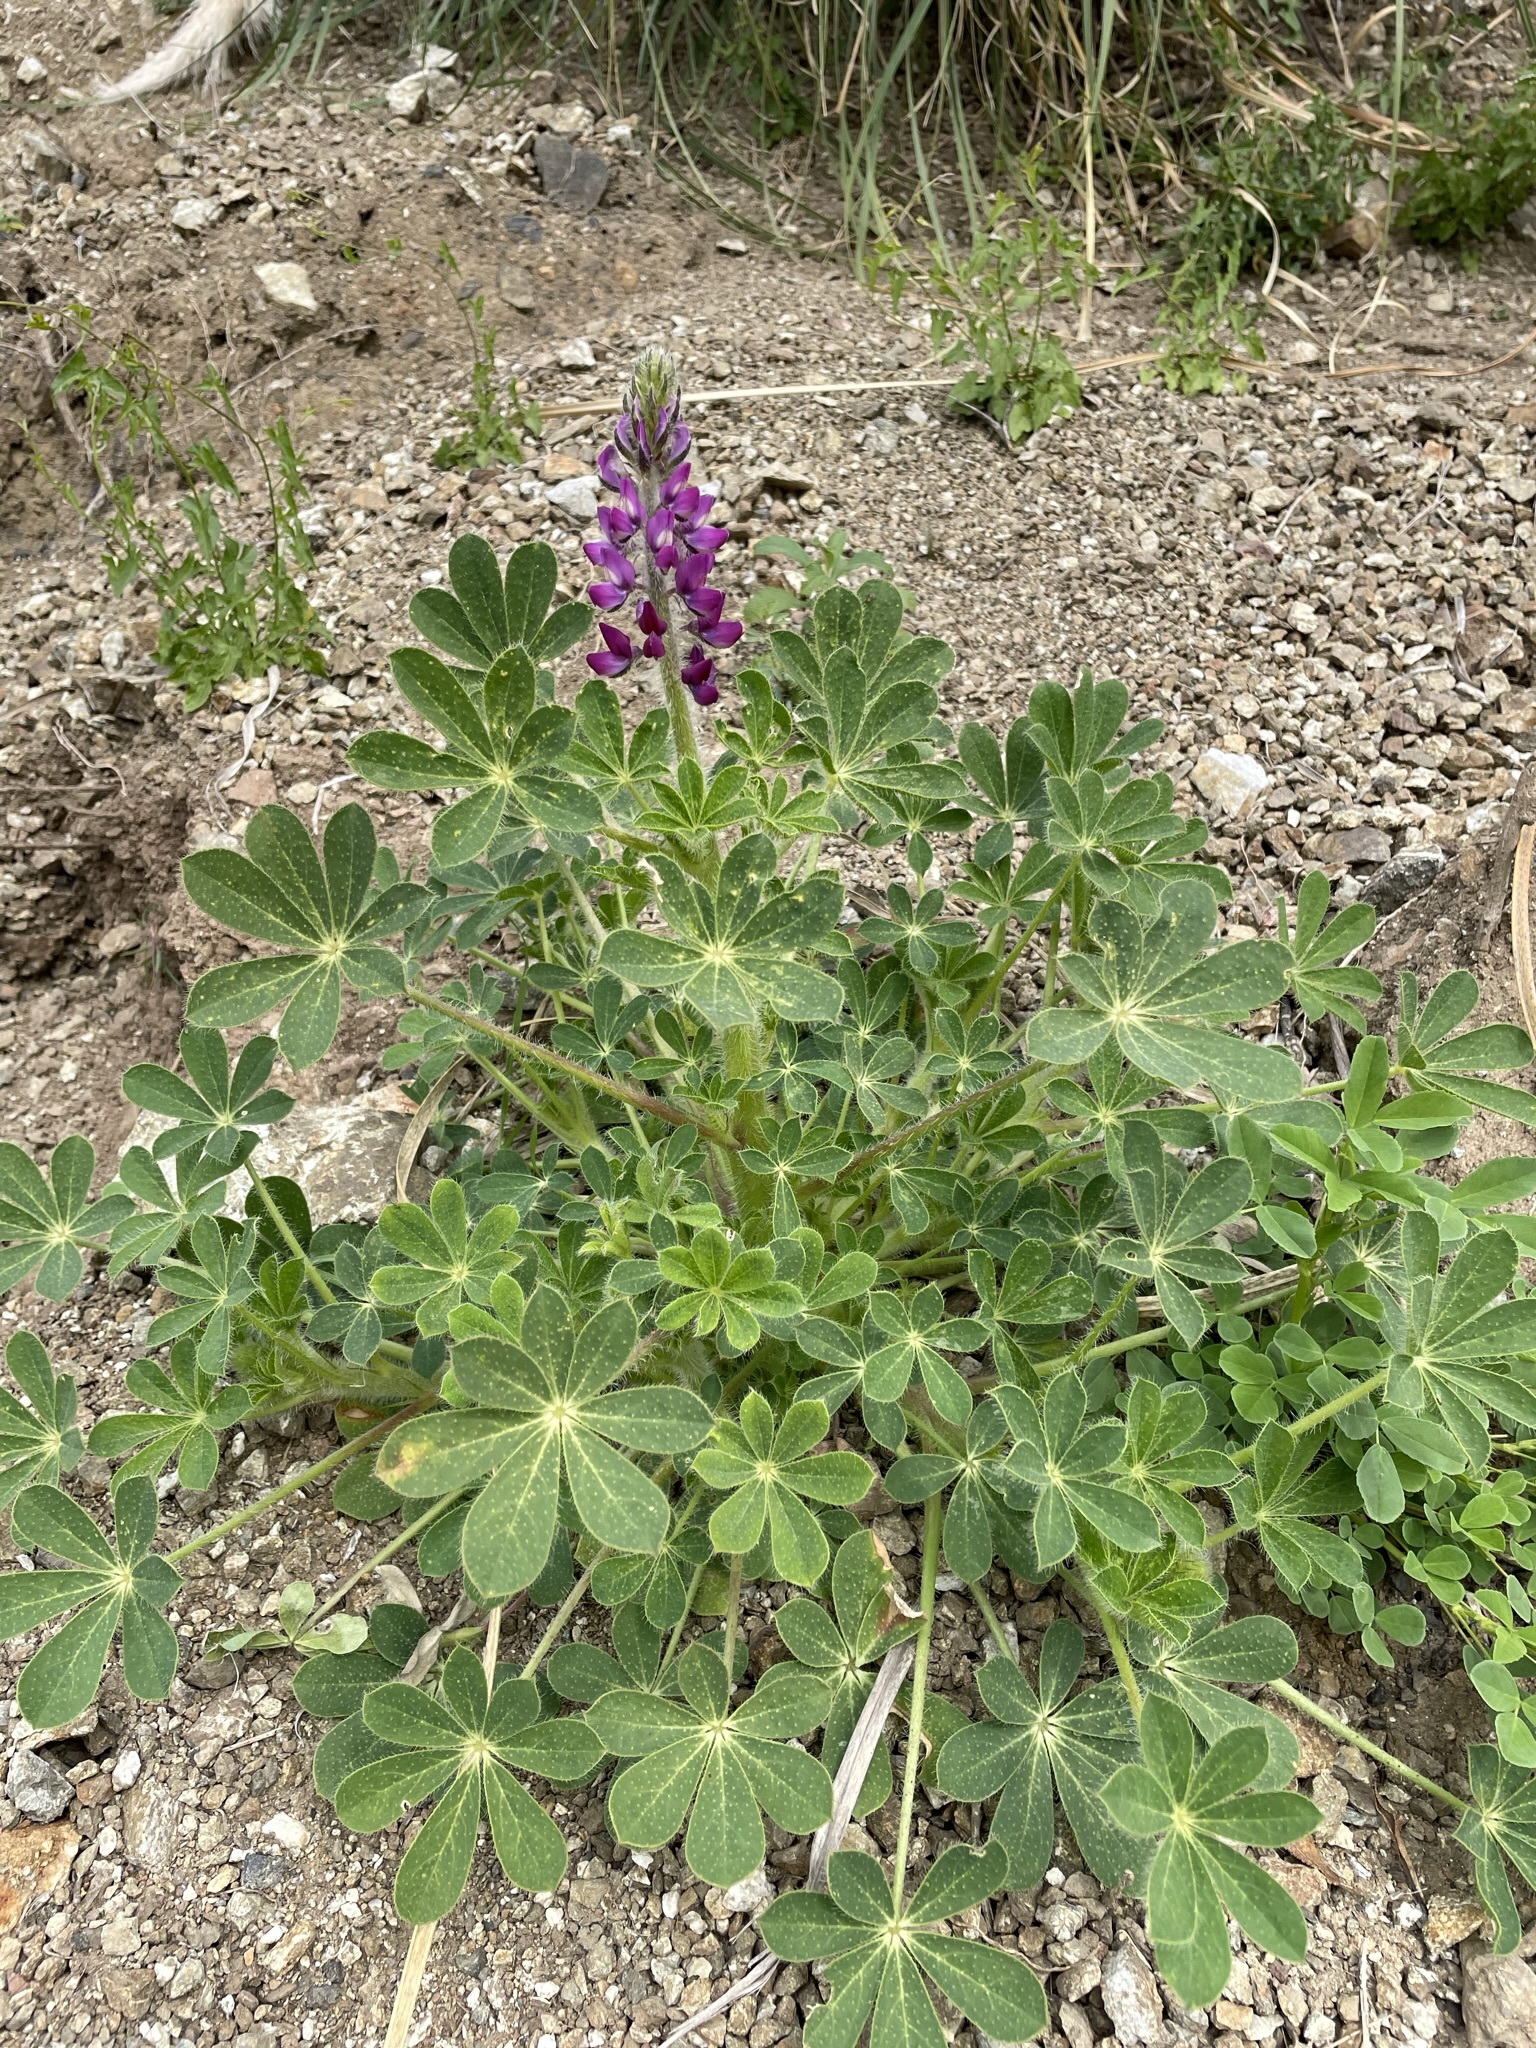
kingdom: Plantae
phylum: Tracheophyta
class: Magnoliopsida
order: Fabales
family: Fabaceae
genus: Lupinus
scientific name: Lupinus hirsutissimus
